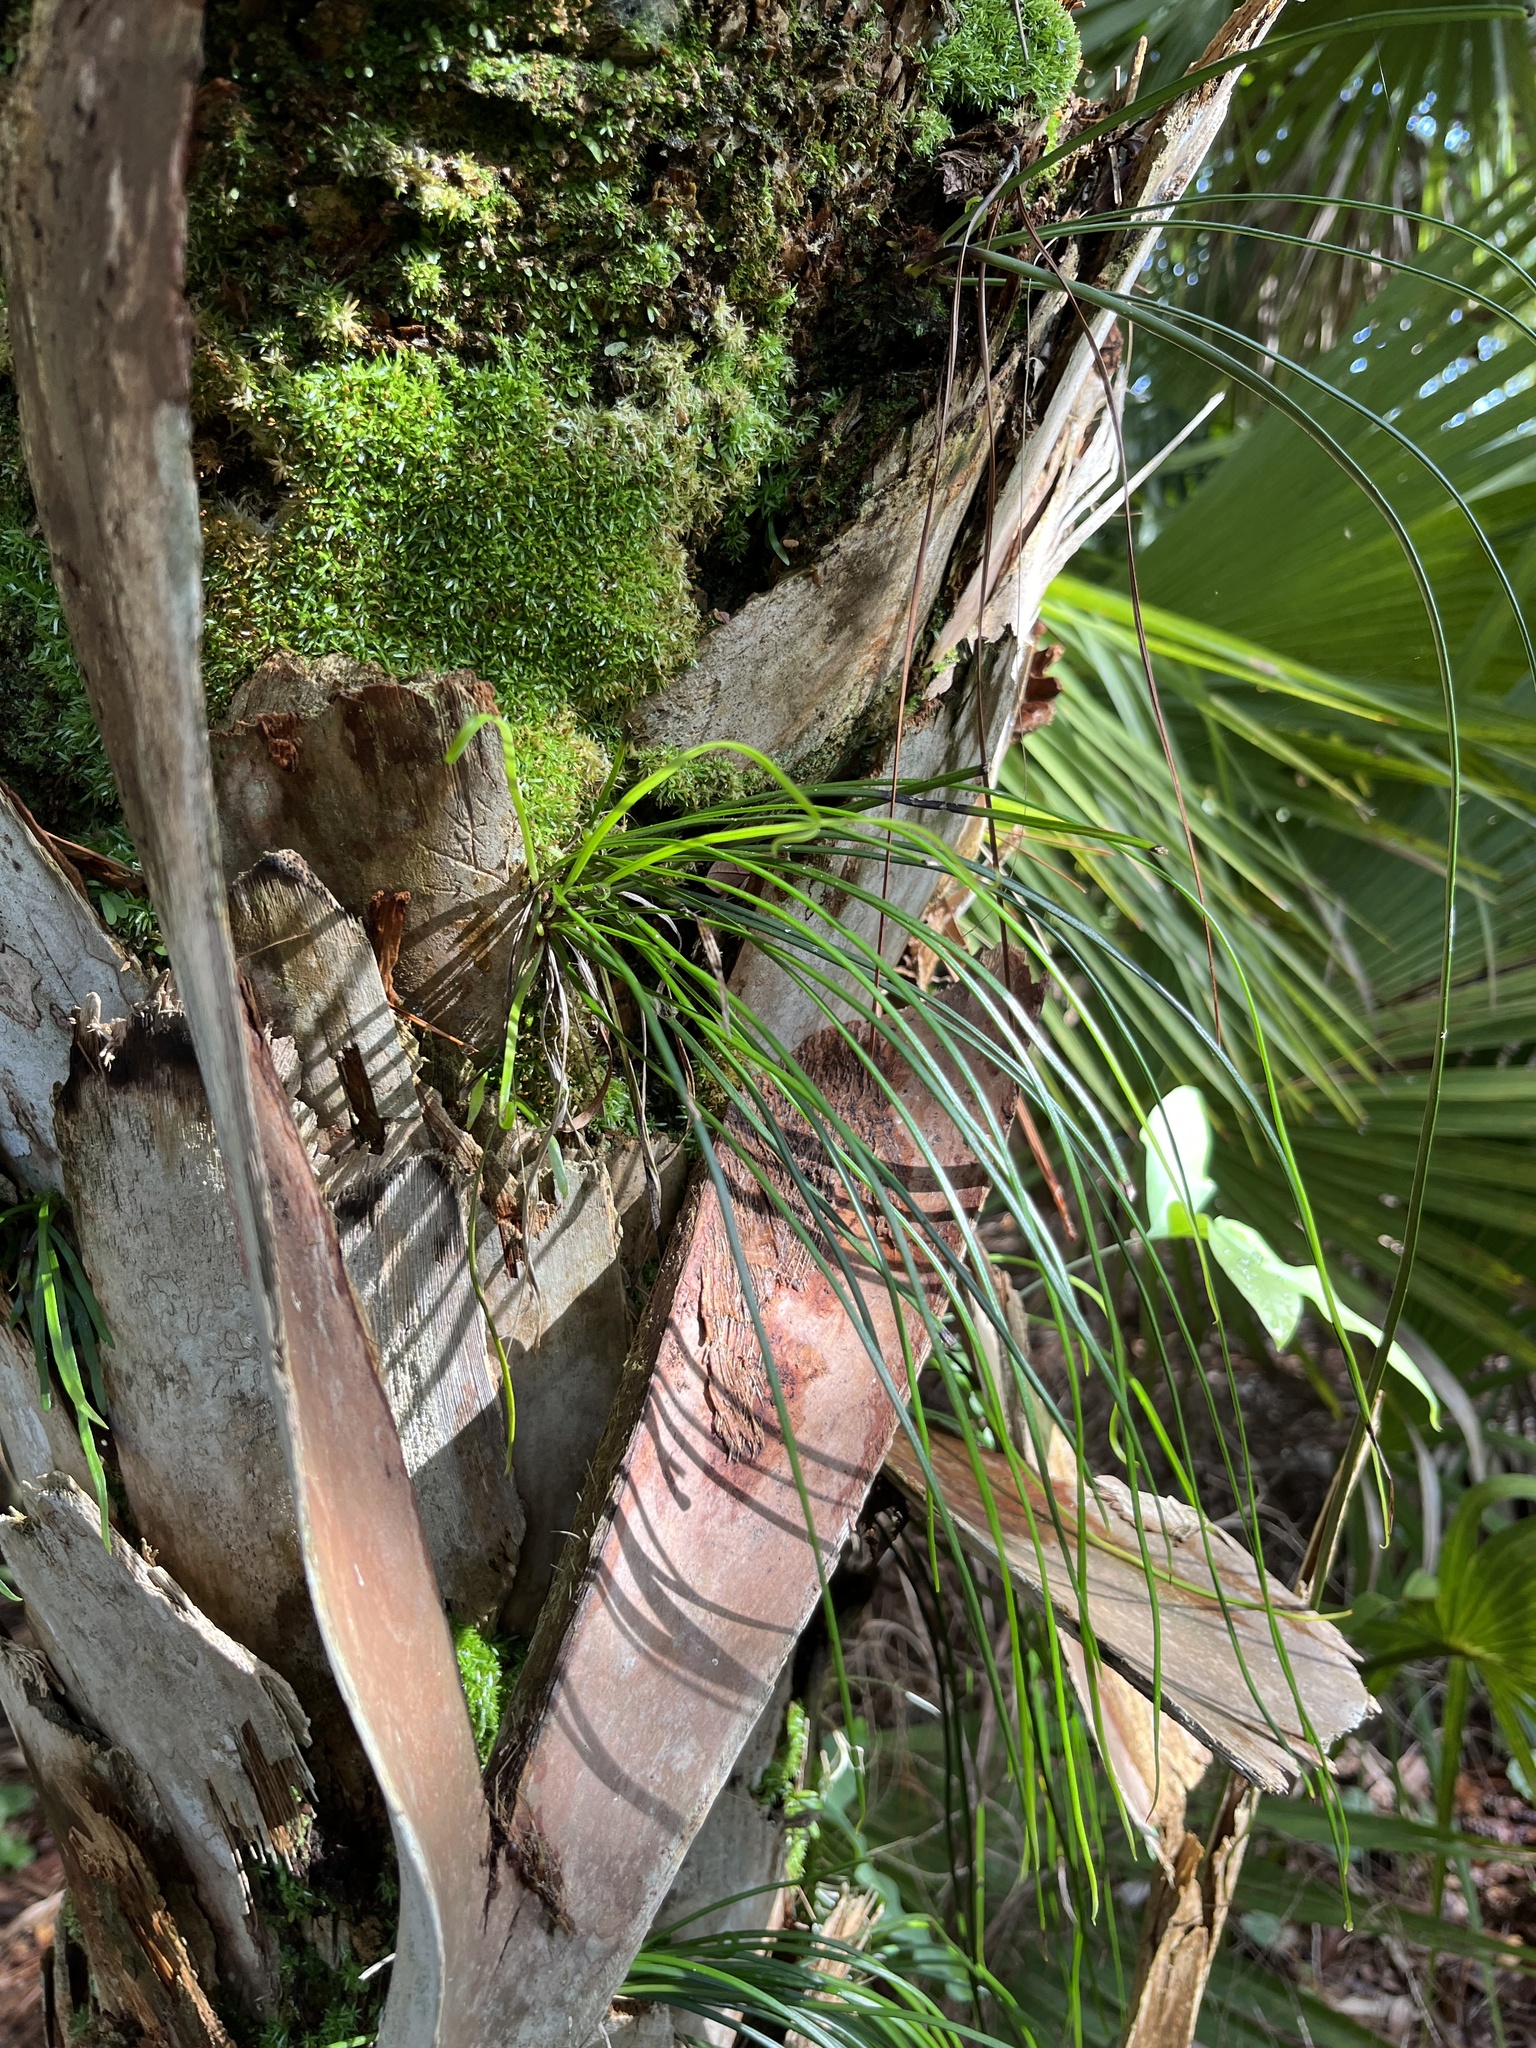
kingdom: Plantae
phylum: Tracheophyta
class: Polypodiopsida
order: Polypodiales
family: Pteridaceae
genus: Vittaria
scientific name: Vittaria lineata
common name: Shoestring fern
